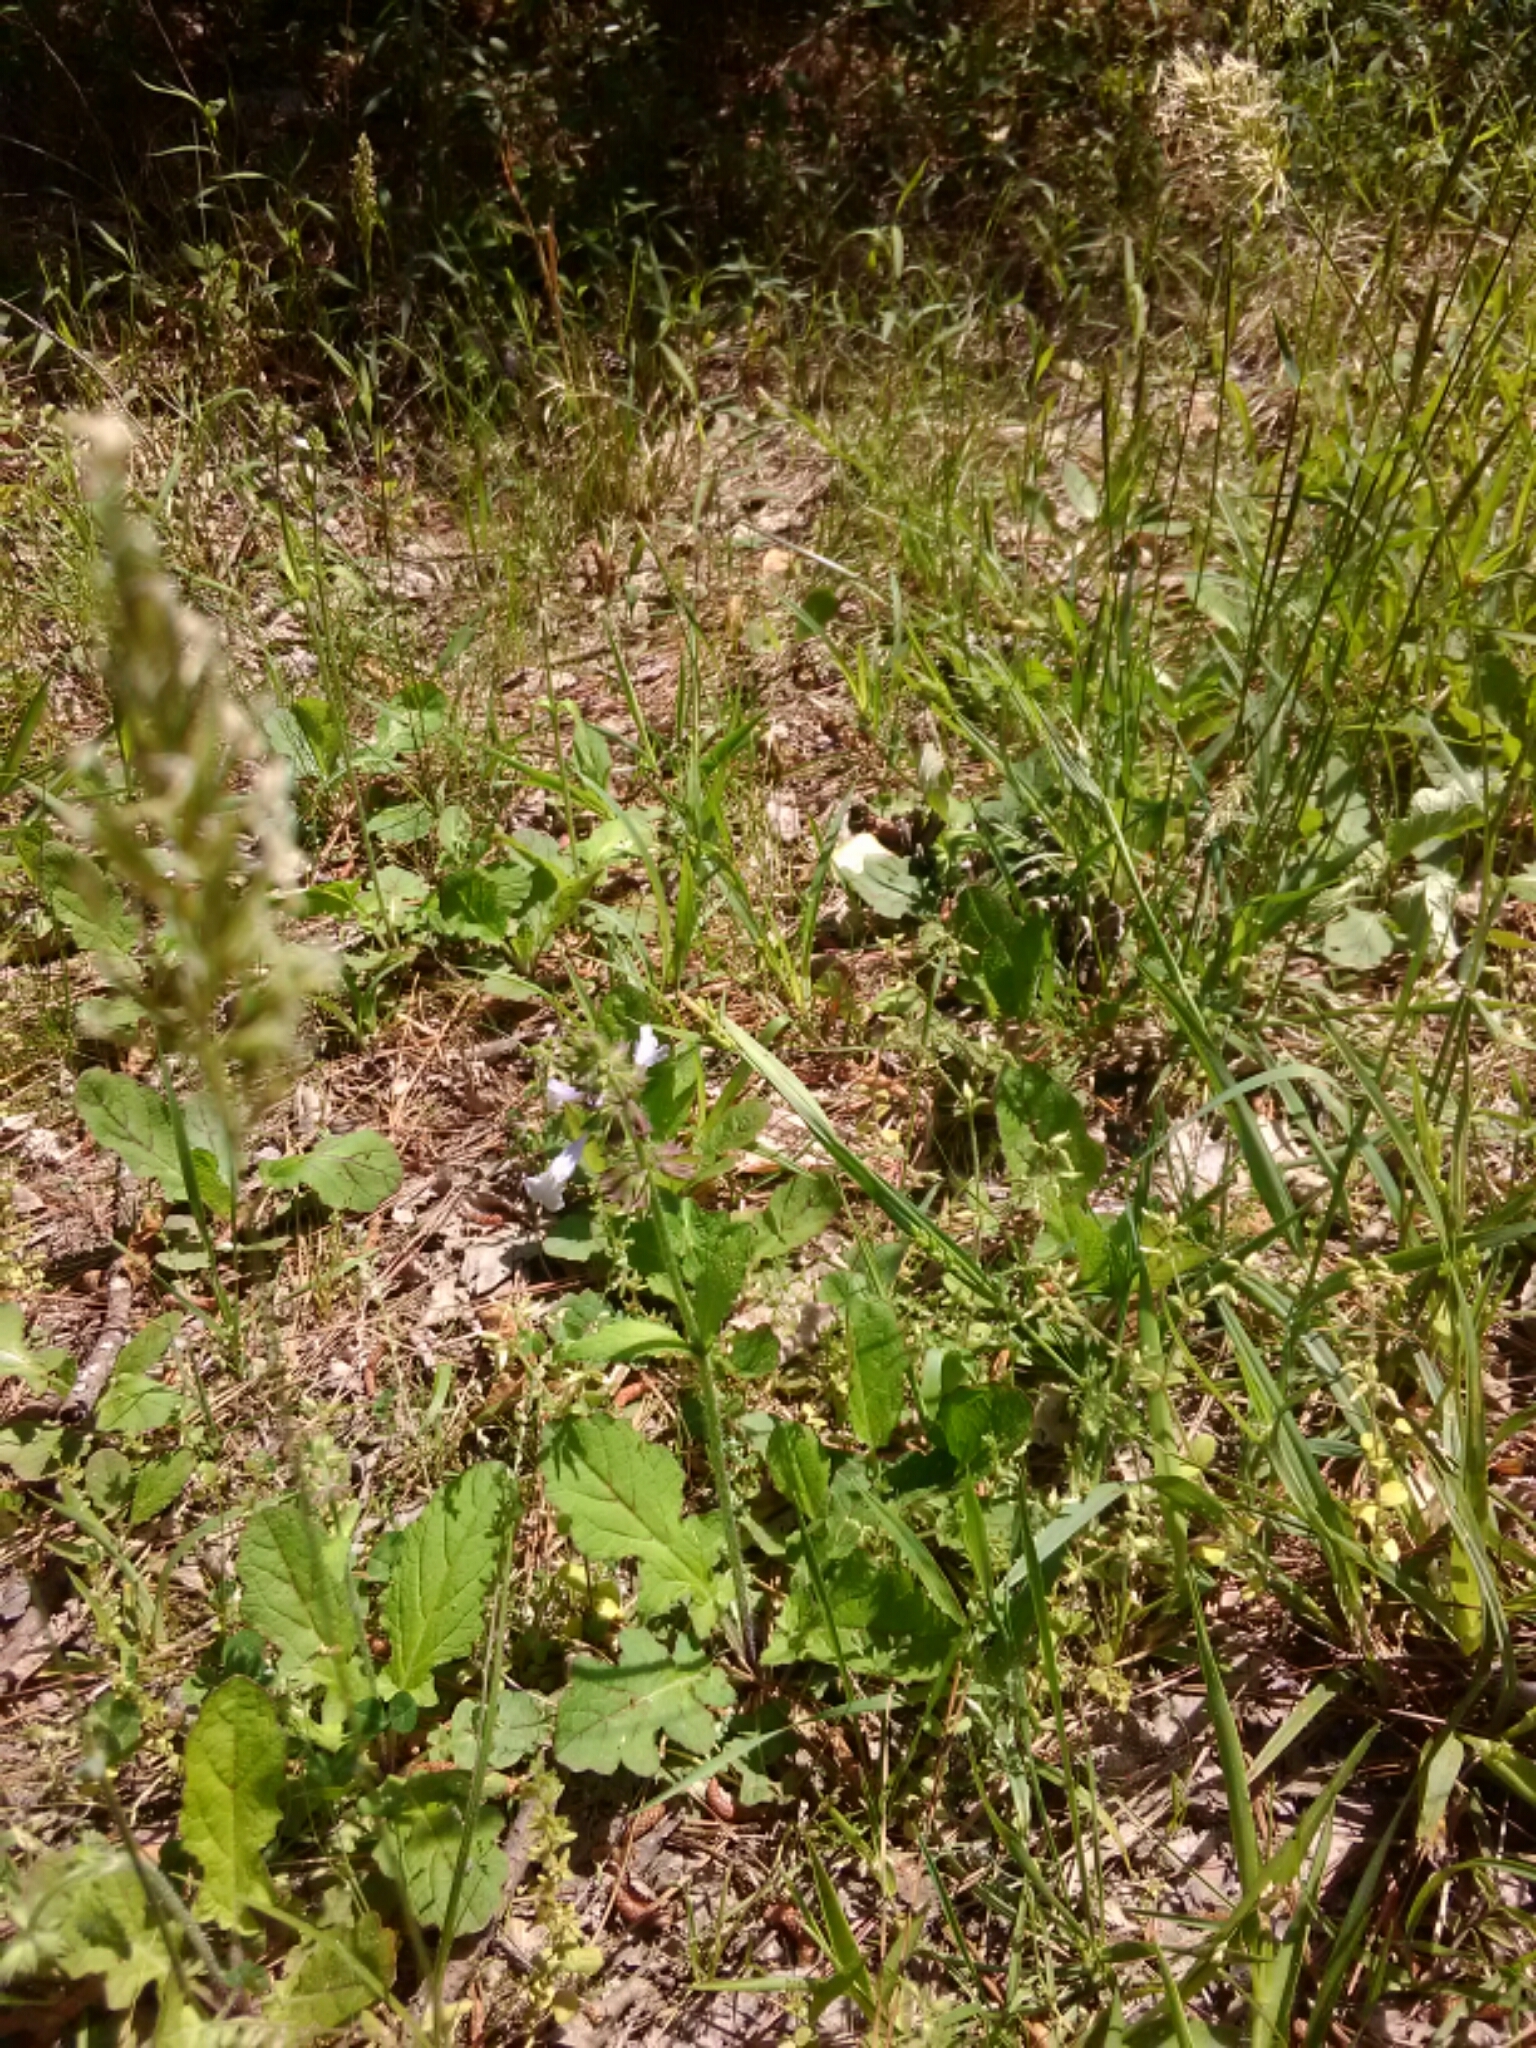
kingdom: Plantae
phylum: Tracheophyta
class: Magnoliopsida
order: Lamiales
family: Lamiaceae
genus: Salvia
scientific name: Salvia lyrata
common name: Cancerweed
